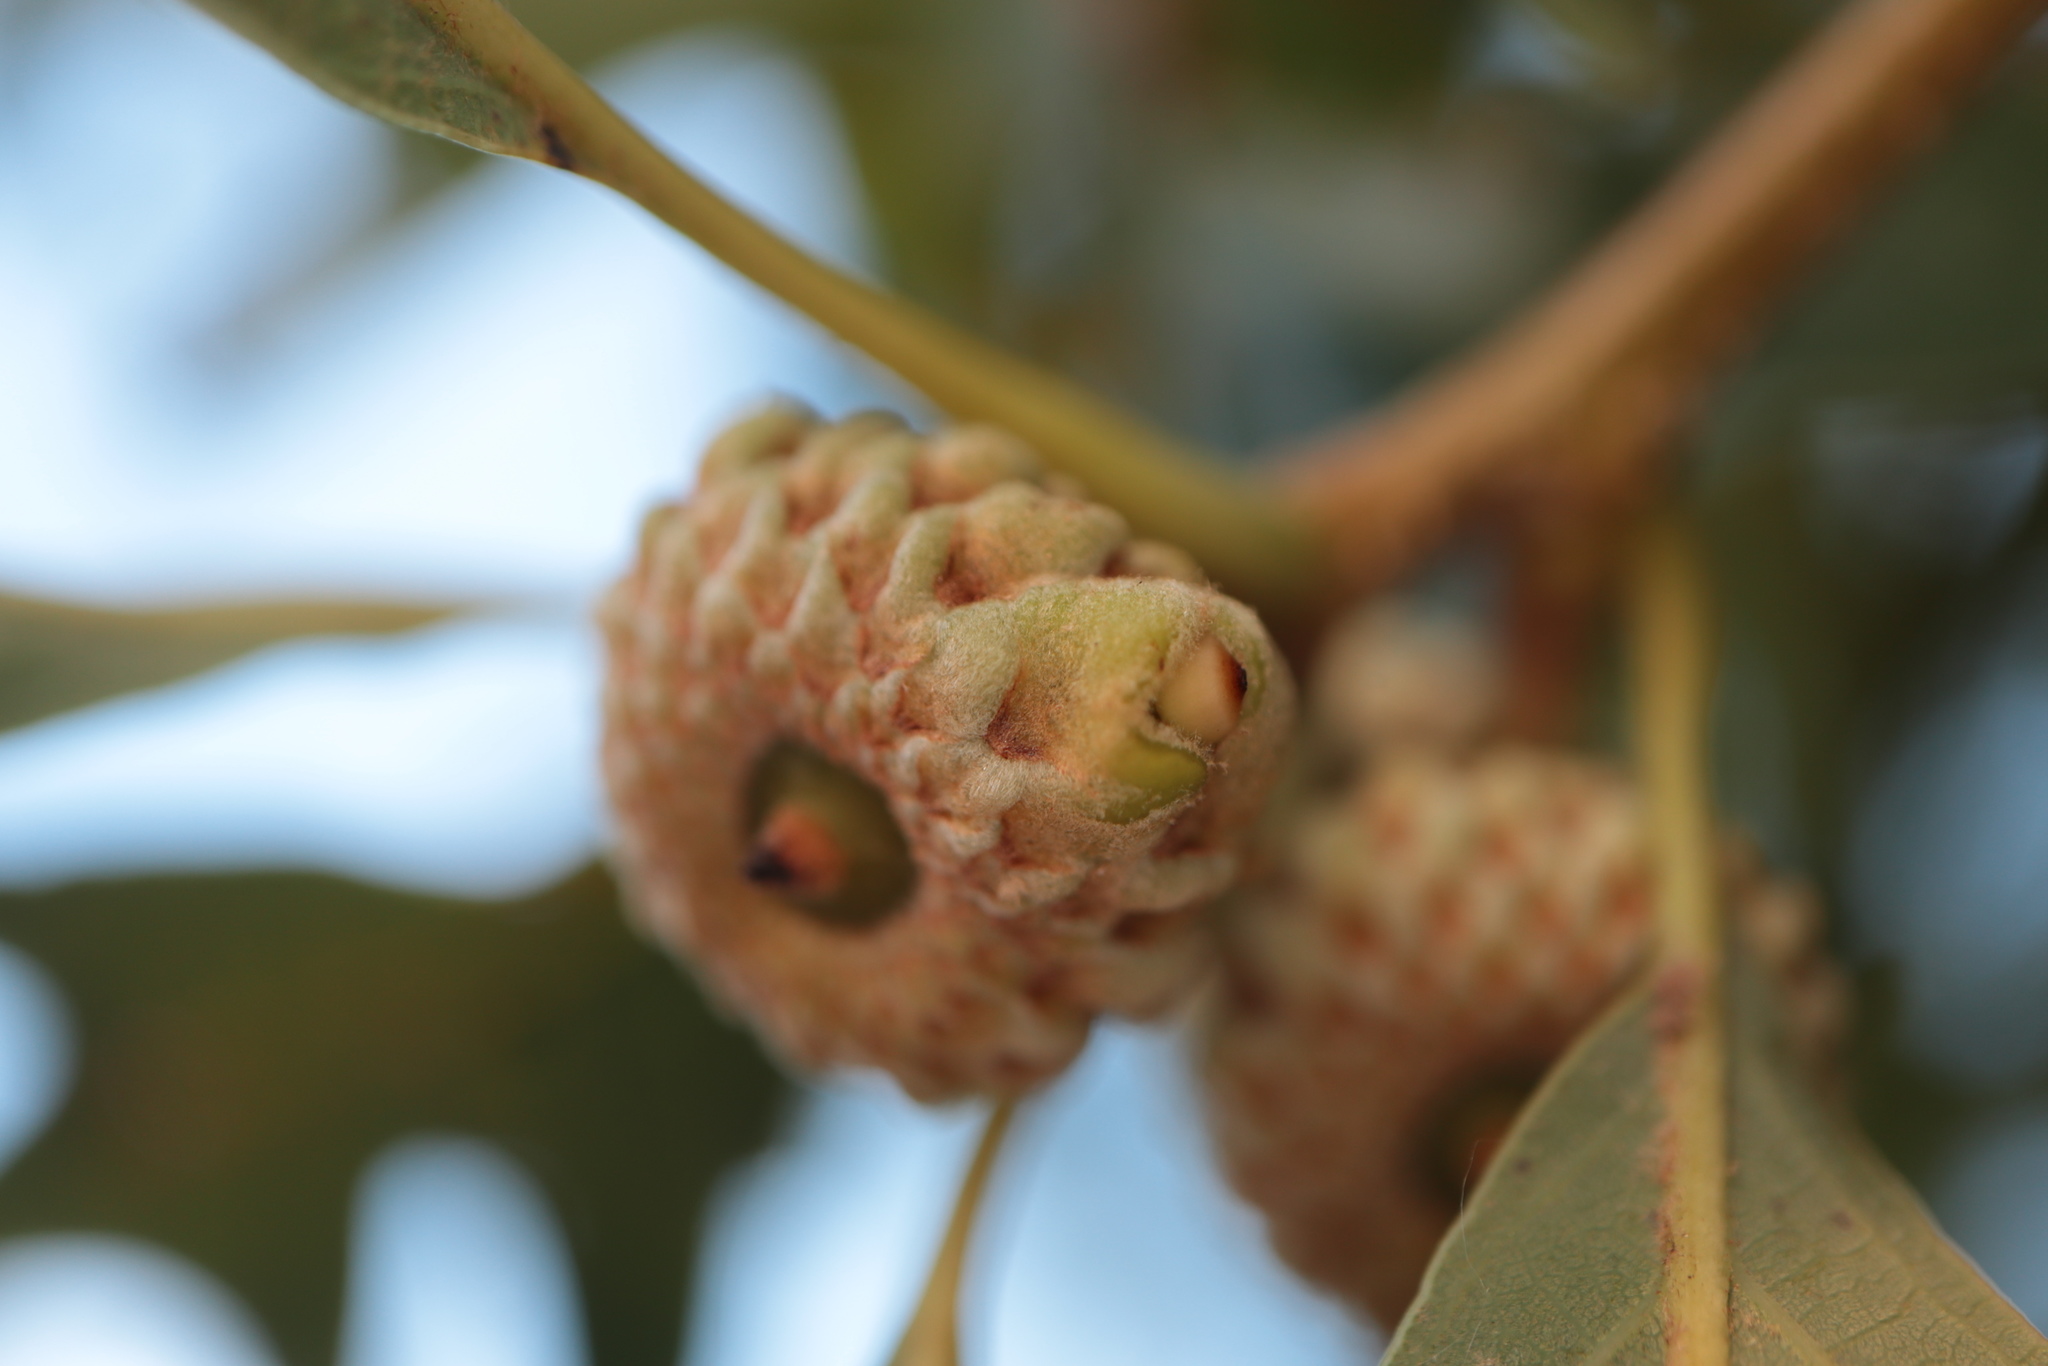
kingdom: Animalia
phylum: Arthropoda
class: Insecta
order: Hymenoptera
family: Cynipidae
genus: Callirhytis
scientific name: Callirhytis glandium
